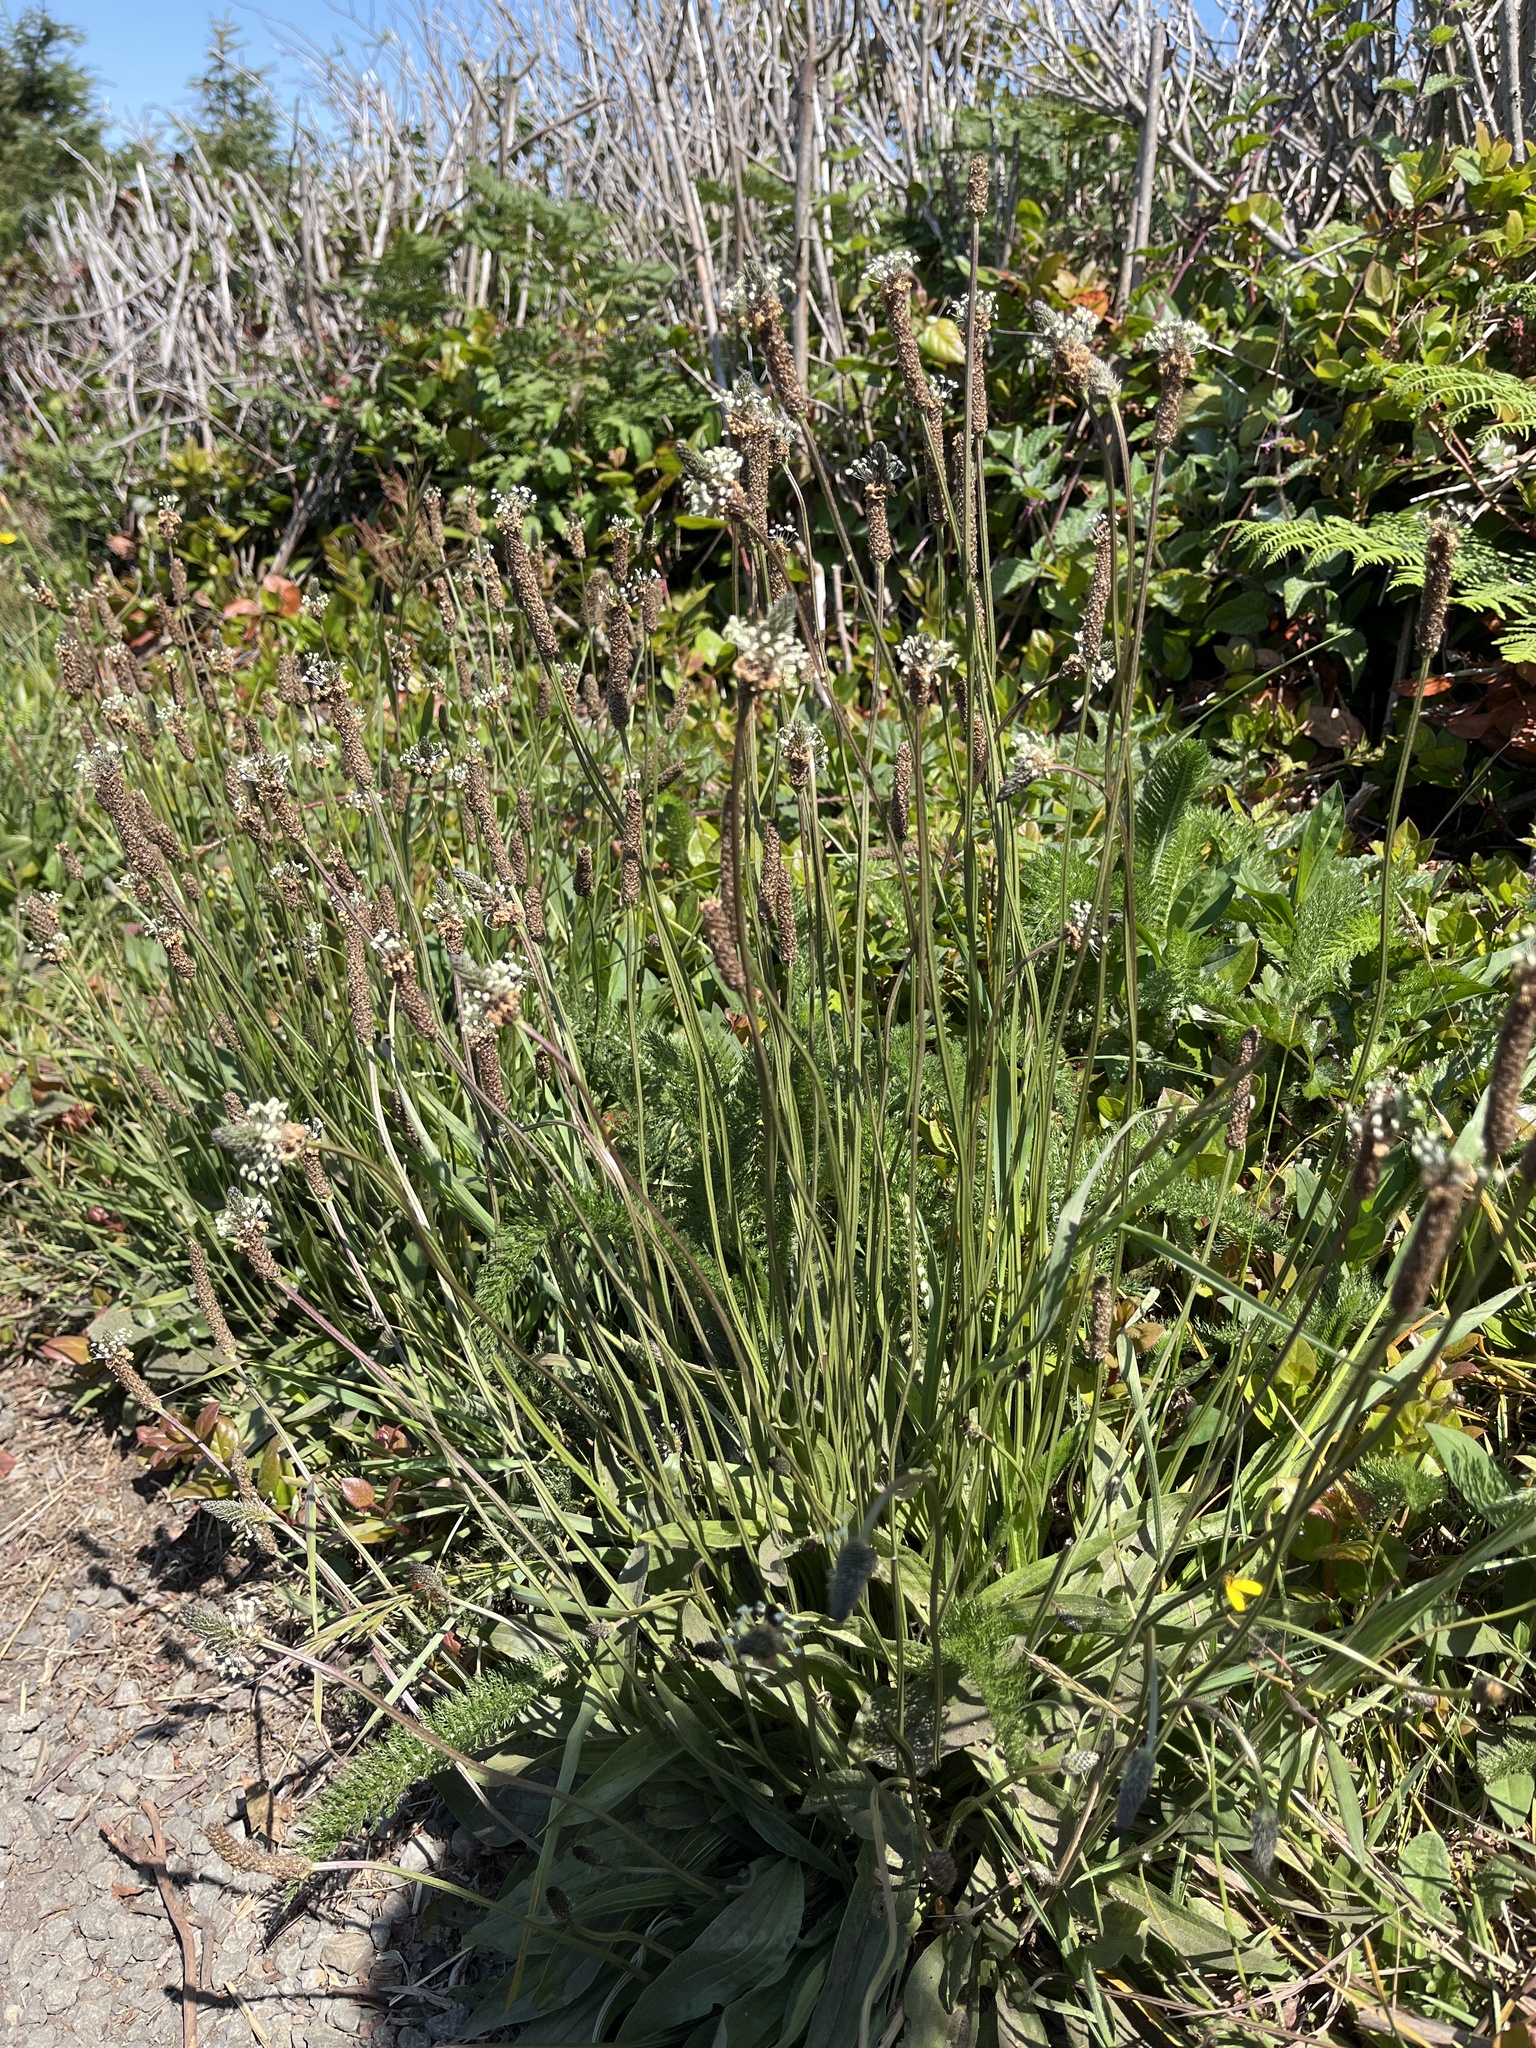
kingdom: Plantae
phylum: Tracheophyta
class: Magnoliopsida
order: Lamiales
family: Plantaginaceae
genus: Plantago
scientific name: Plantago lanceolata
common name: Ribwort plantain
